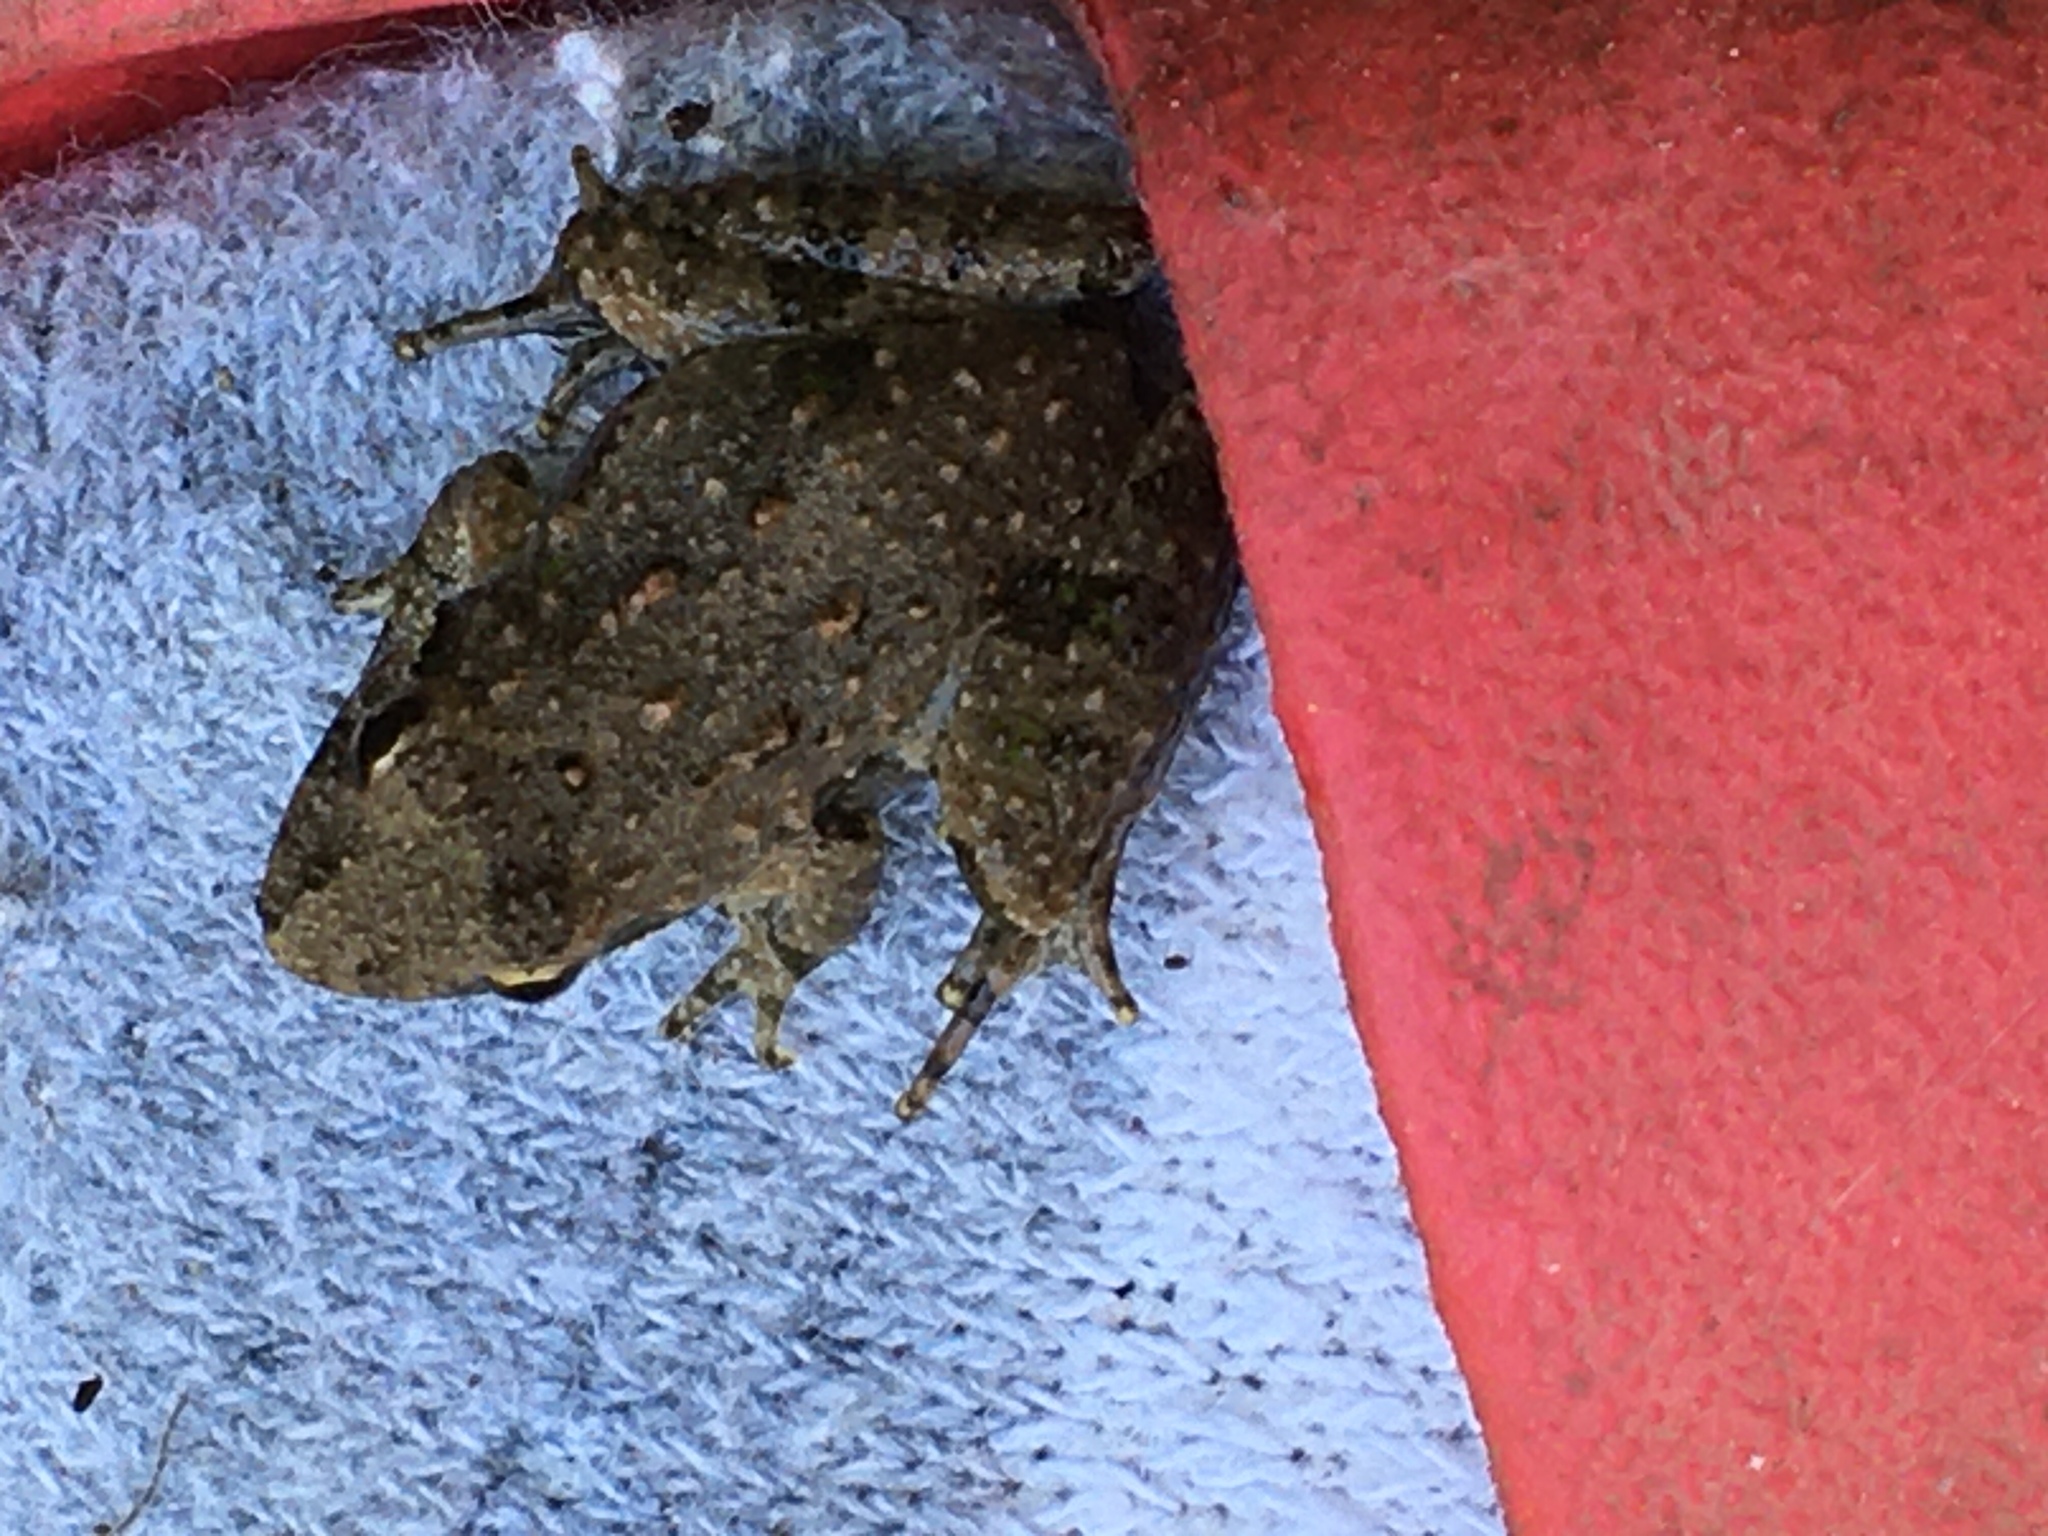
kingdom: Animalia
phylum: Chordata
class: Amphibia
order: Anura
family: Hylidae
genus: Acris
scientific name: Acris crepitans
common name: Northern cricket frog
